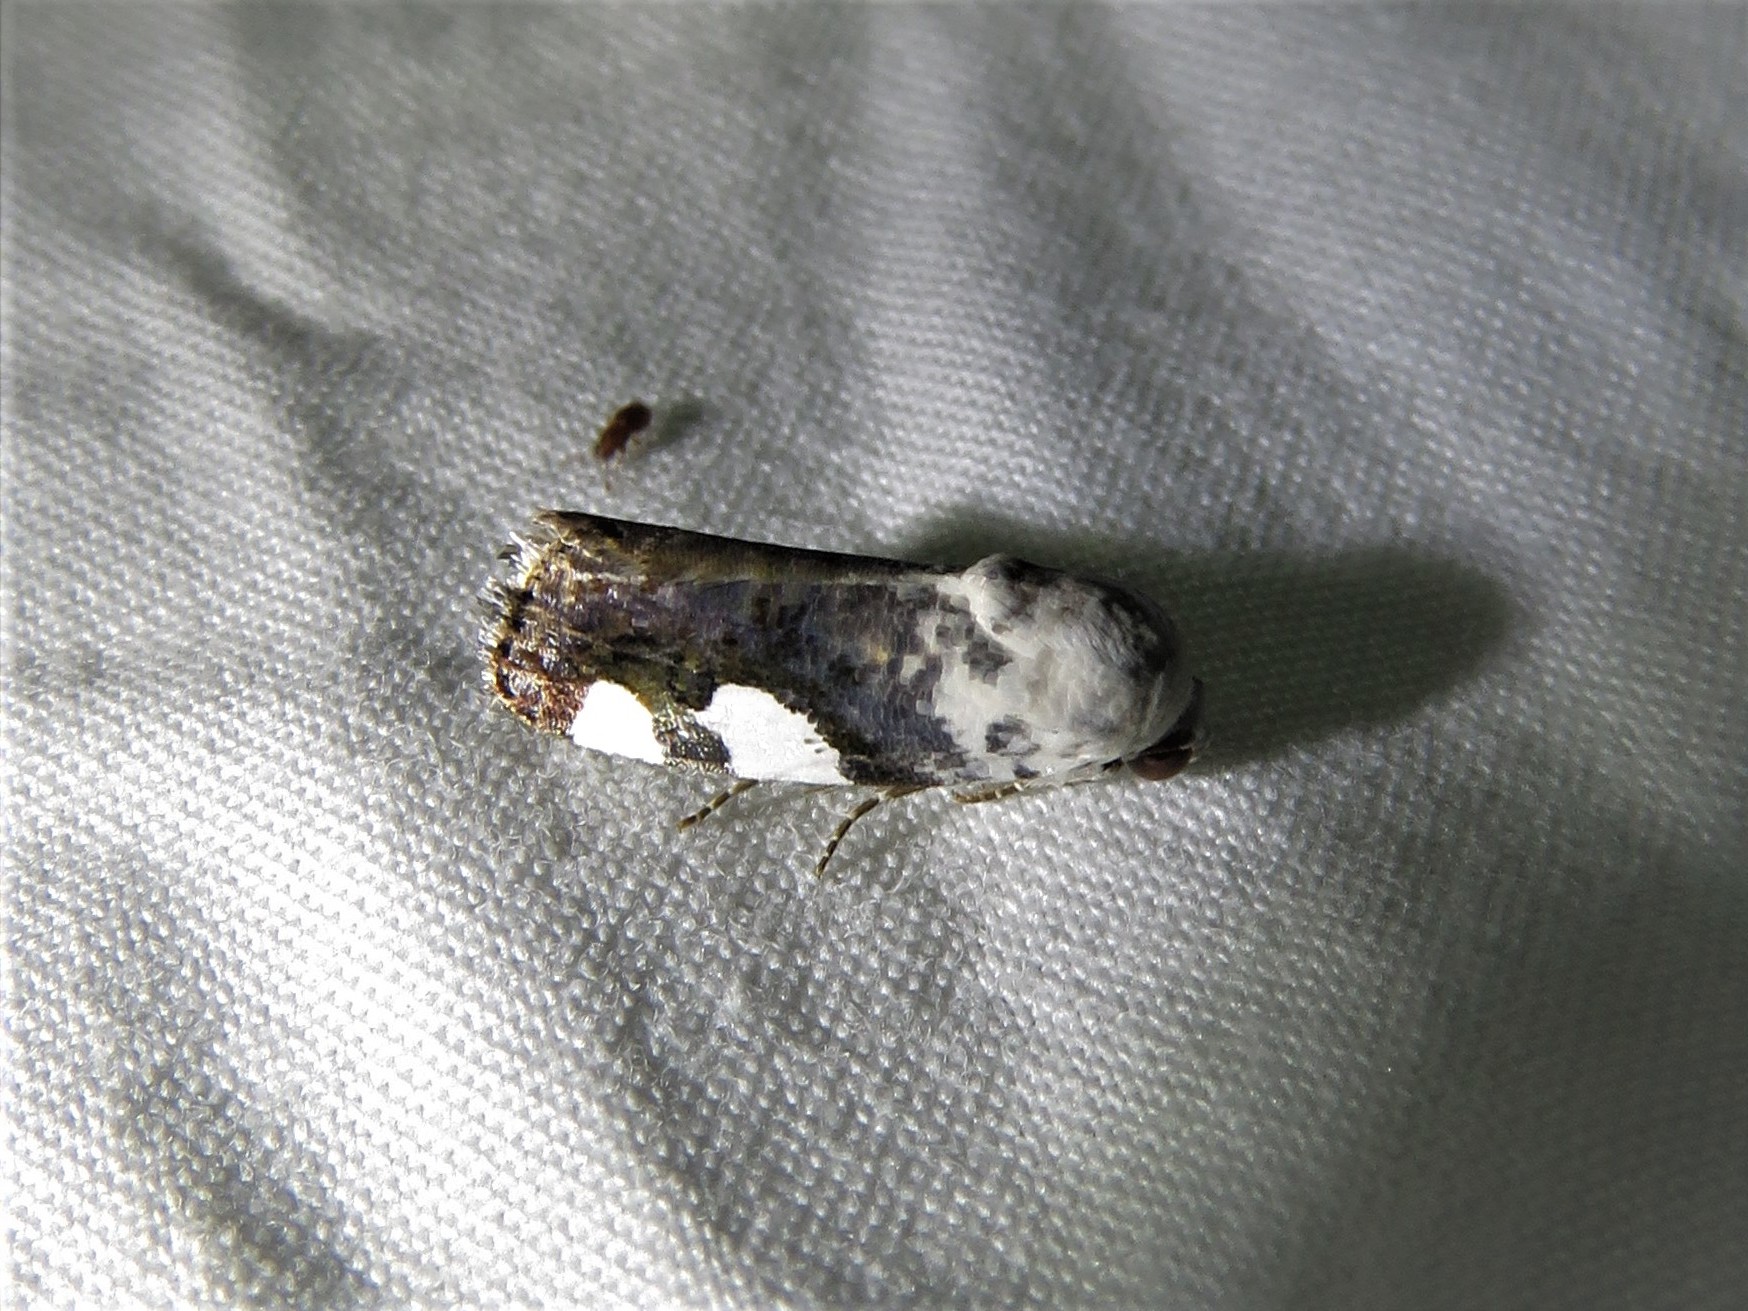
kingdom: Animalia
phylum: Arthropoda
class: Insecta
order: Lepidoptera
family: Noctuidae
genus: Acontia
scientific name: Acontia quadriplaga
